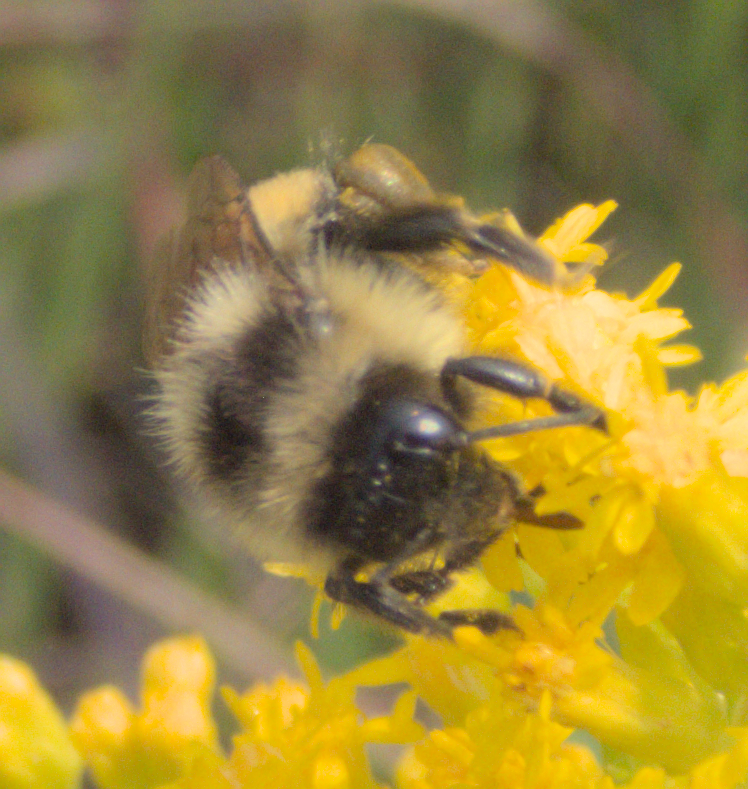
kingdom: Animalia
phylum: Arthropoda
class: Insecta
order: Hymenoptera
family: Apidae
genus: Bombus
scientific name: Bombus ternarius
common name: Tri-colored bumble bee
